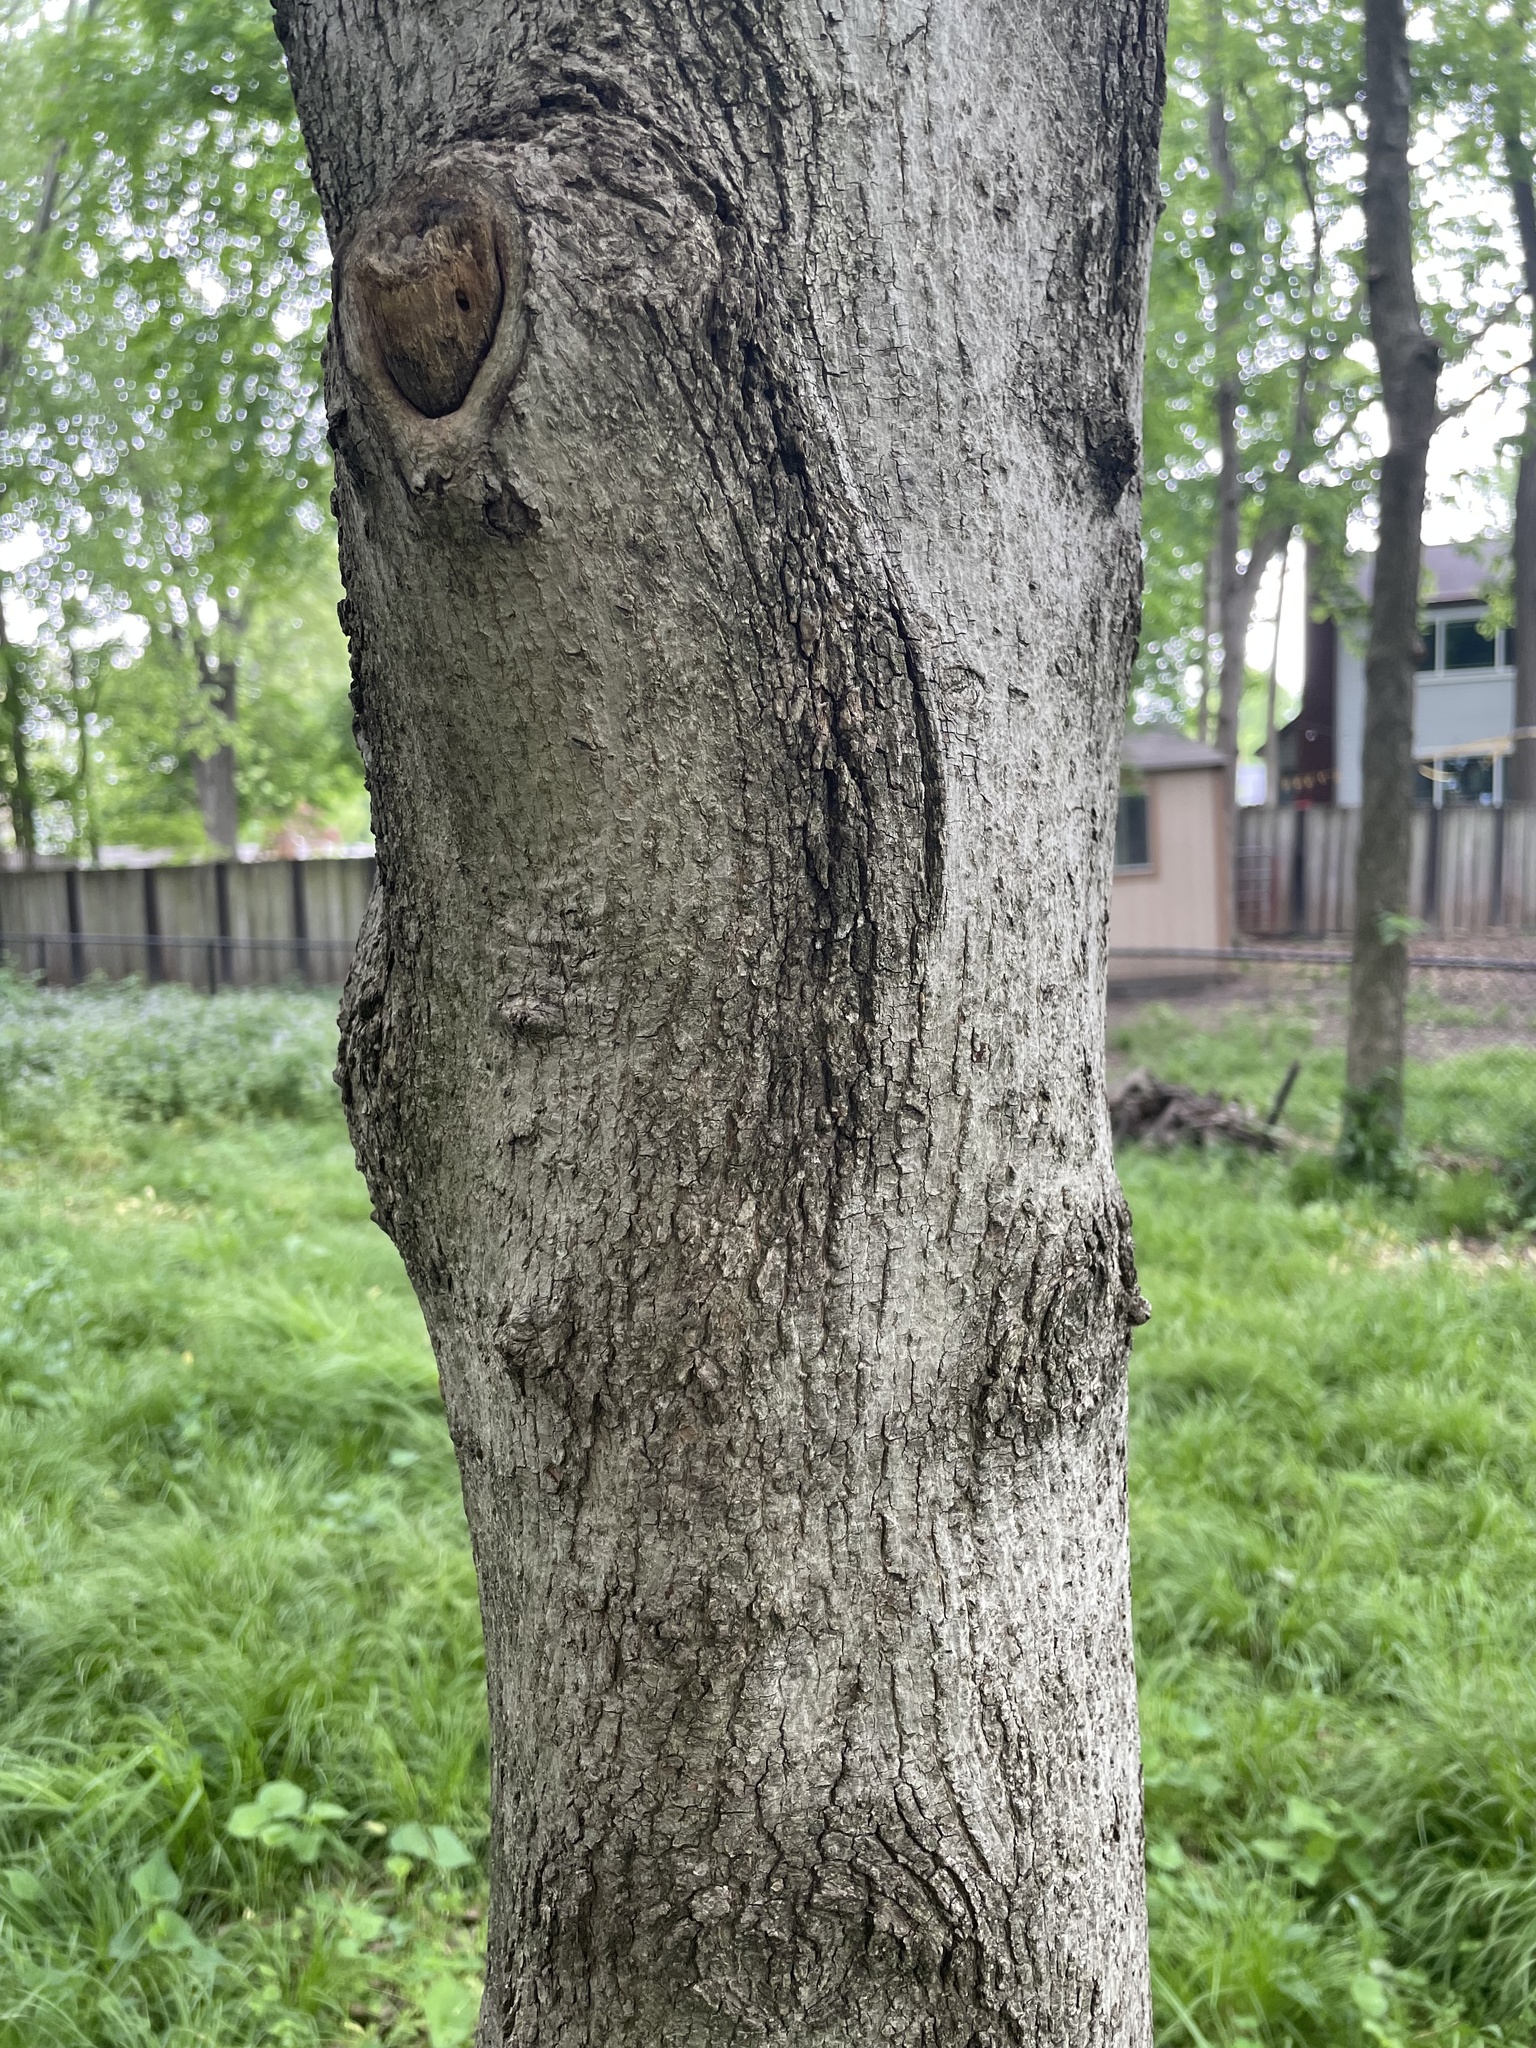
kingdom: Plantae
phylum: Tracheophyta
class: Magnoliopsida
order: Sapindales
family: Sapindaceae
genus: Acer
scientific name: Acer platanoides
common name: Norway maple
